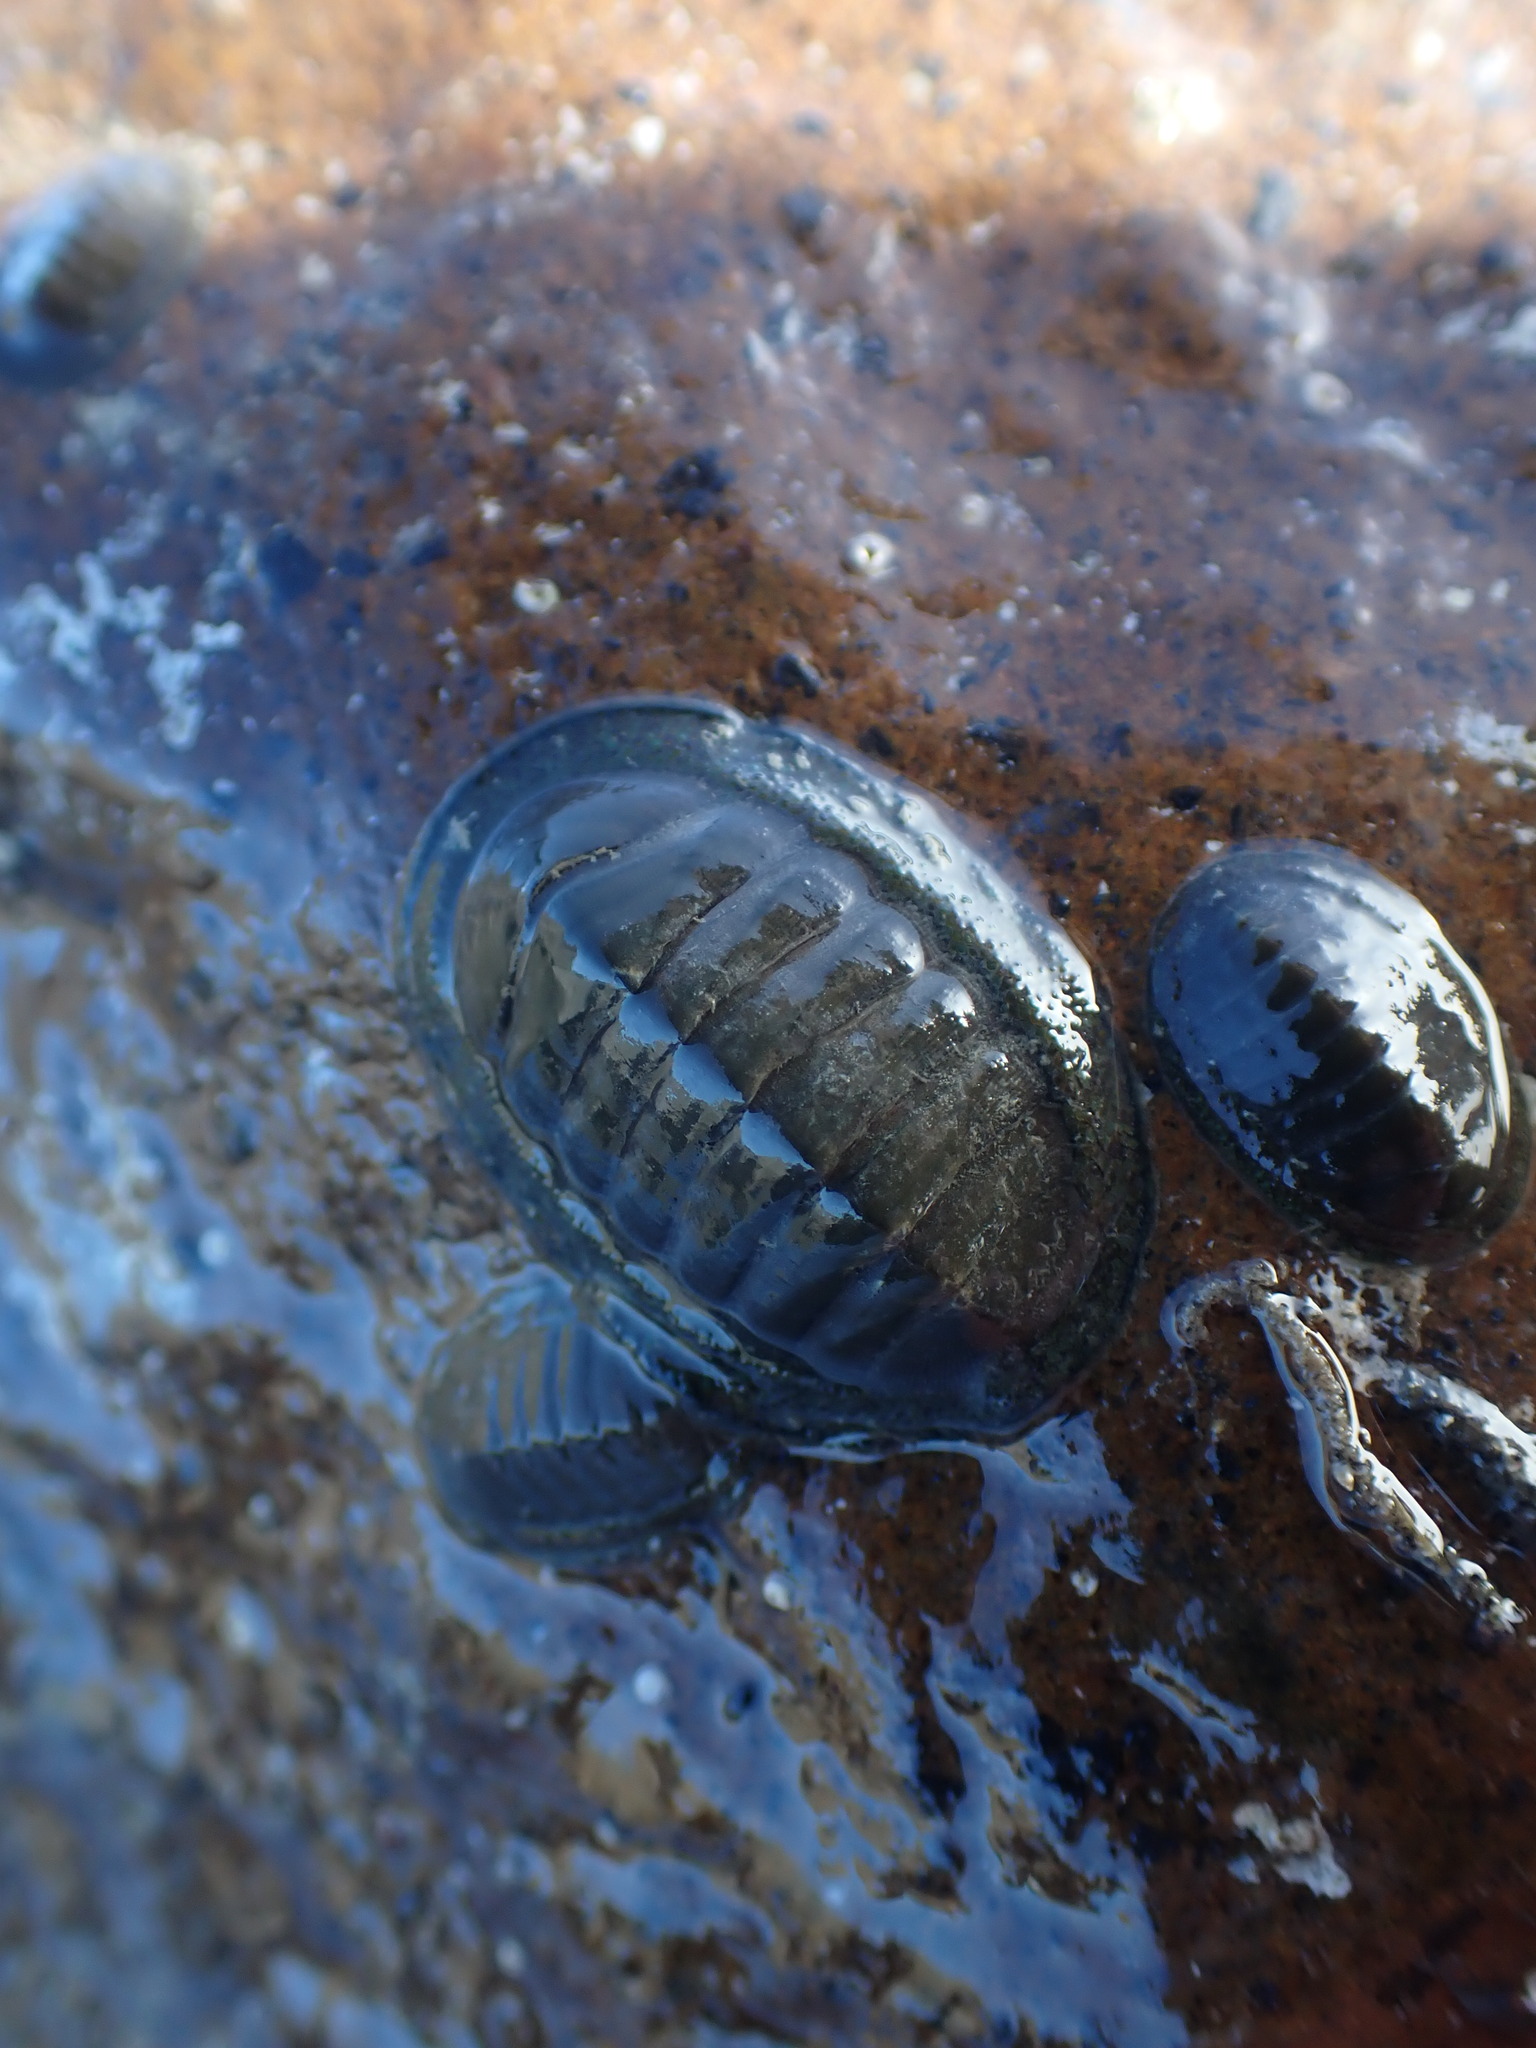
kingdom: Animalia
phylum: Mollusca
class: Polyplacophora
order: Chitonida
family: Chitonidae
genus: Chiton
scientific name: Chiton glaucus
